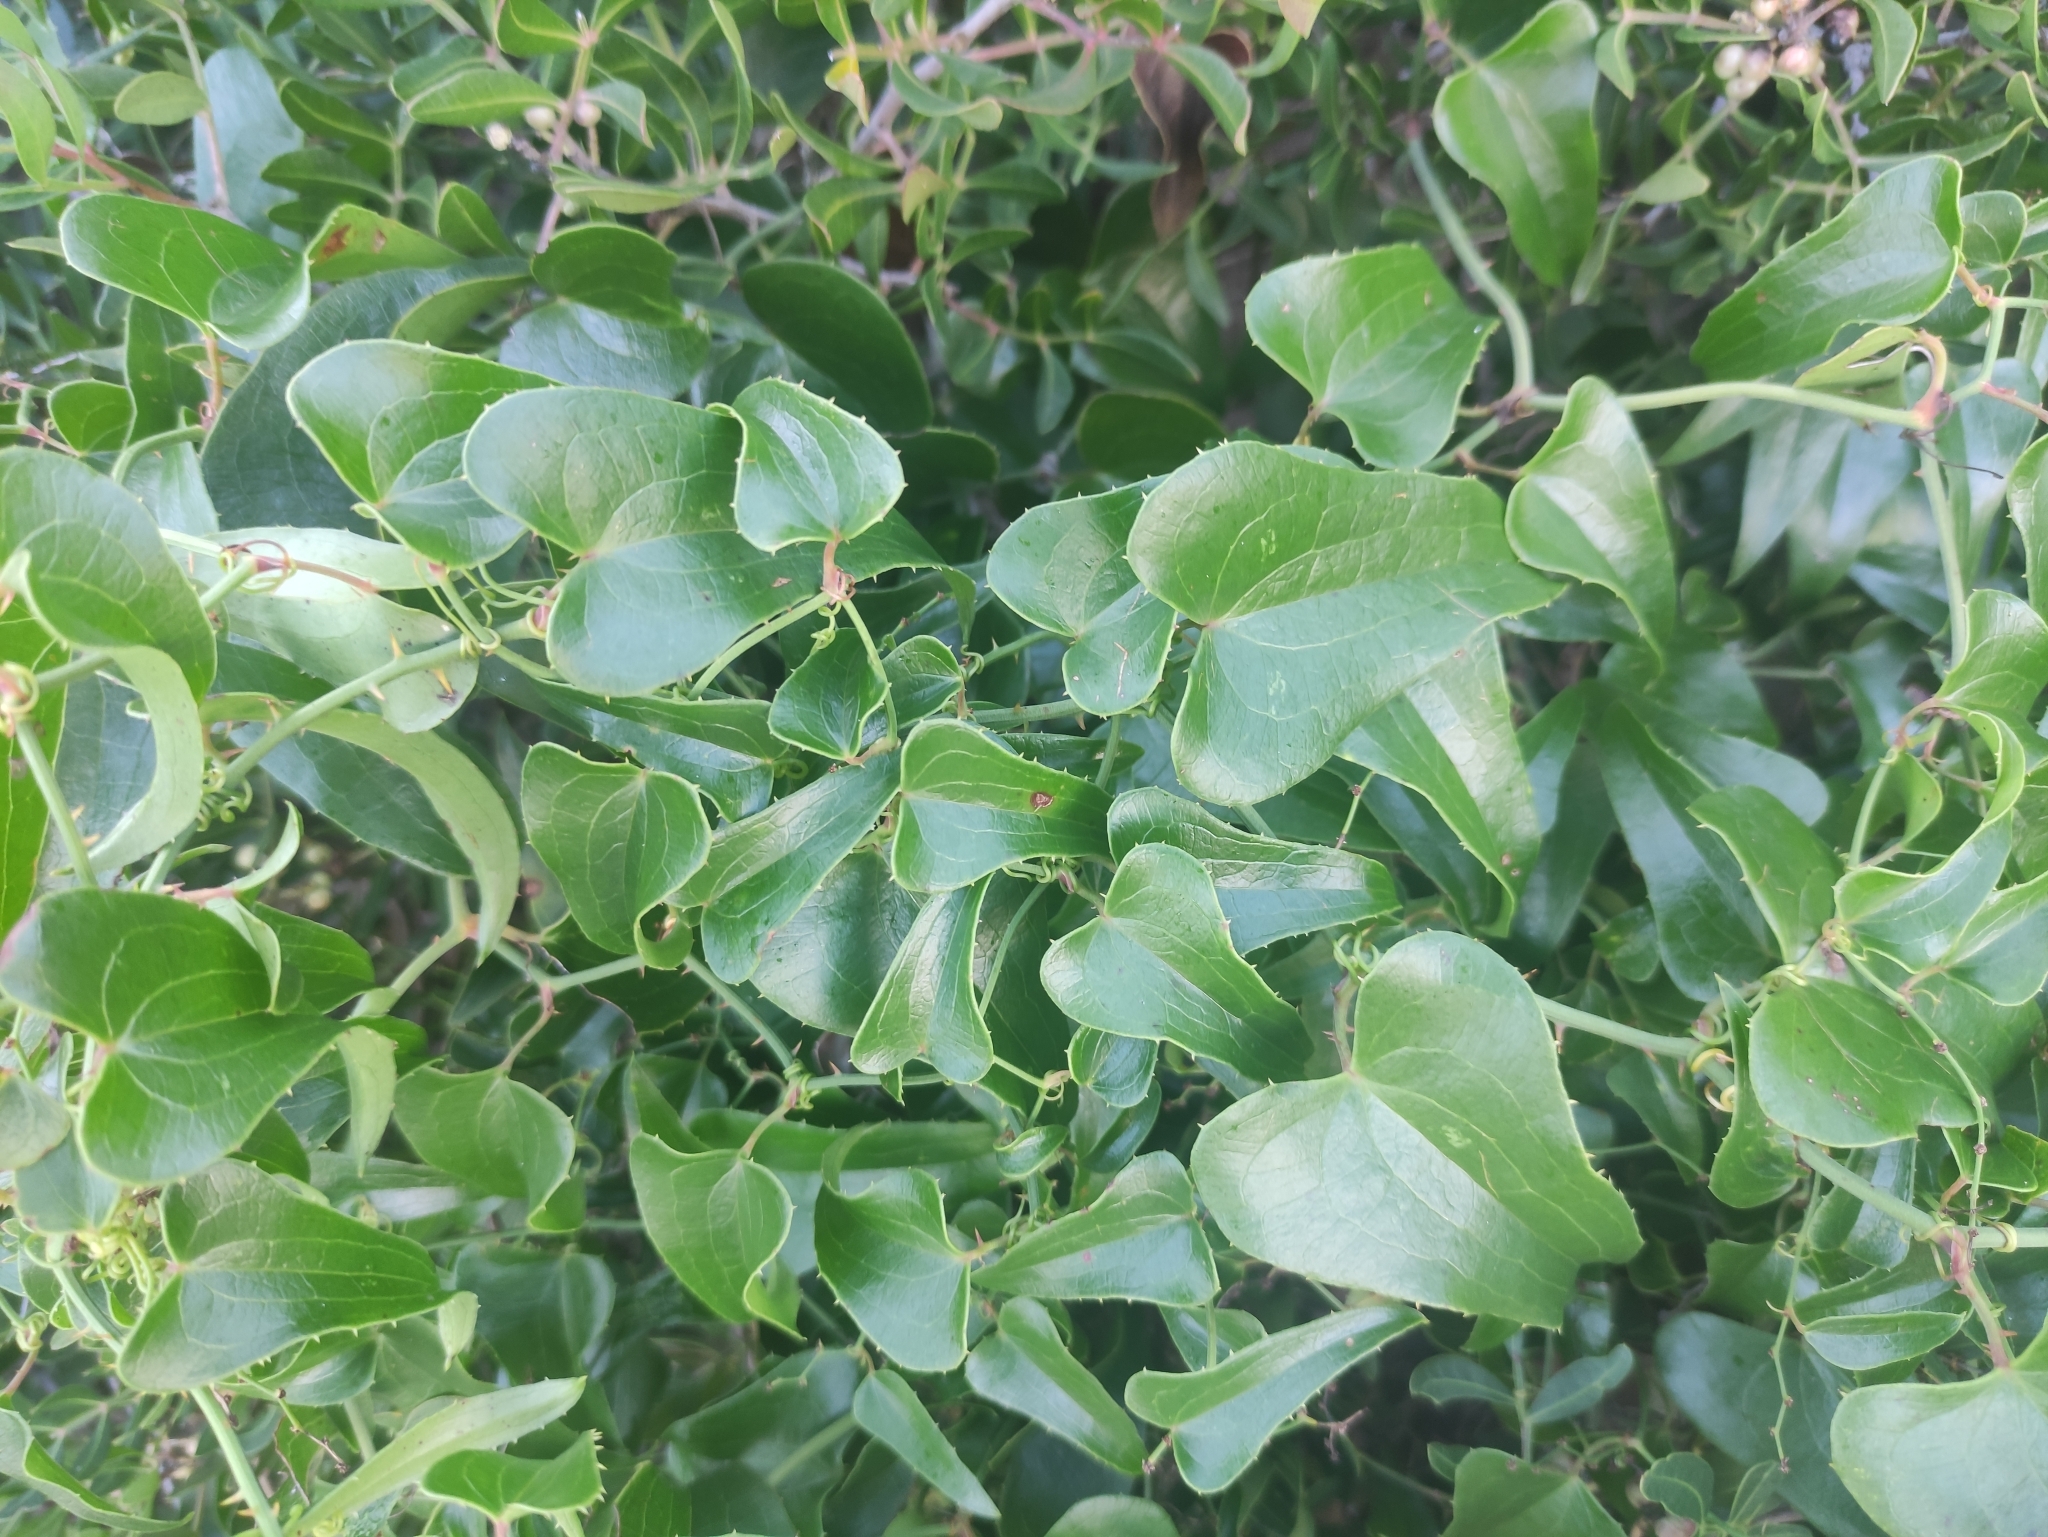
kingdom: Plantae
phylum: Tracheophyta
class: Liliopsida
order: Liliales
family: Smilacaceae
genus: Smilax
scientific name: Smilax aspera
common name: Common smilax
